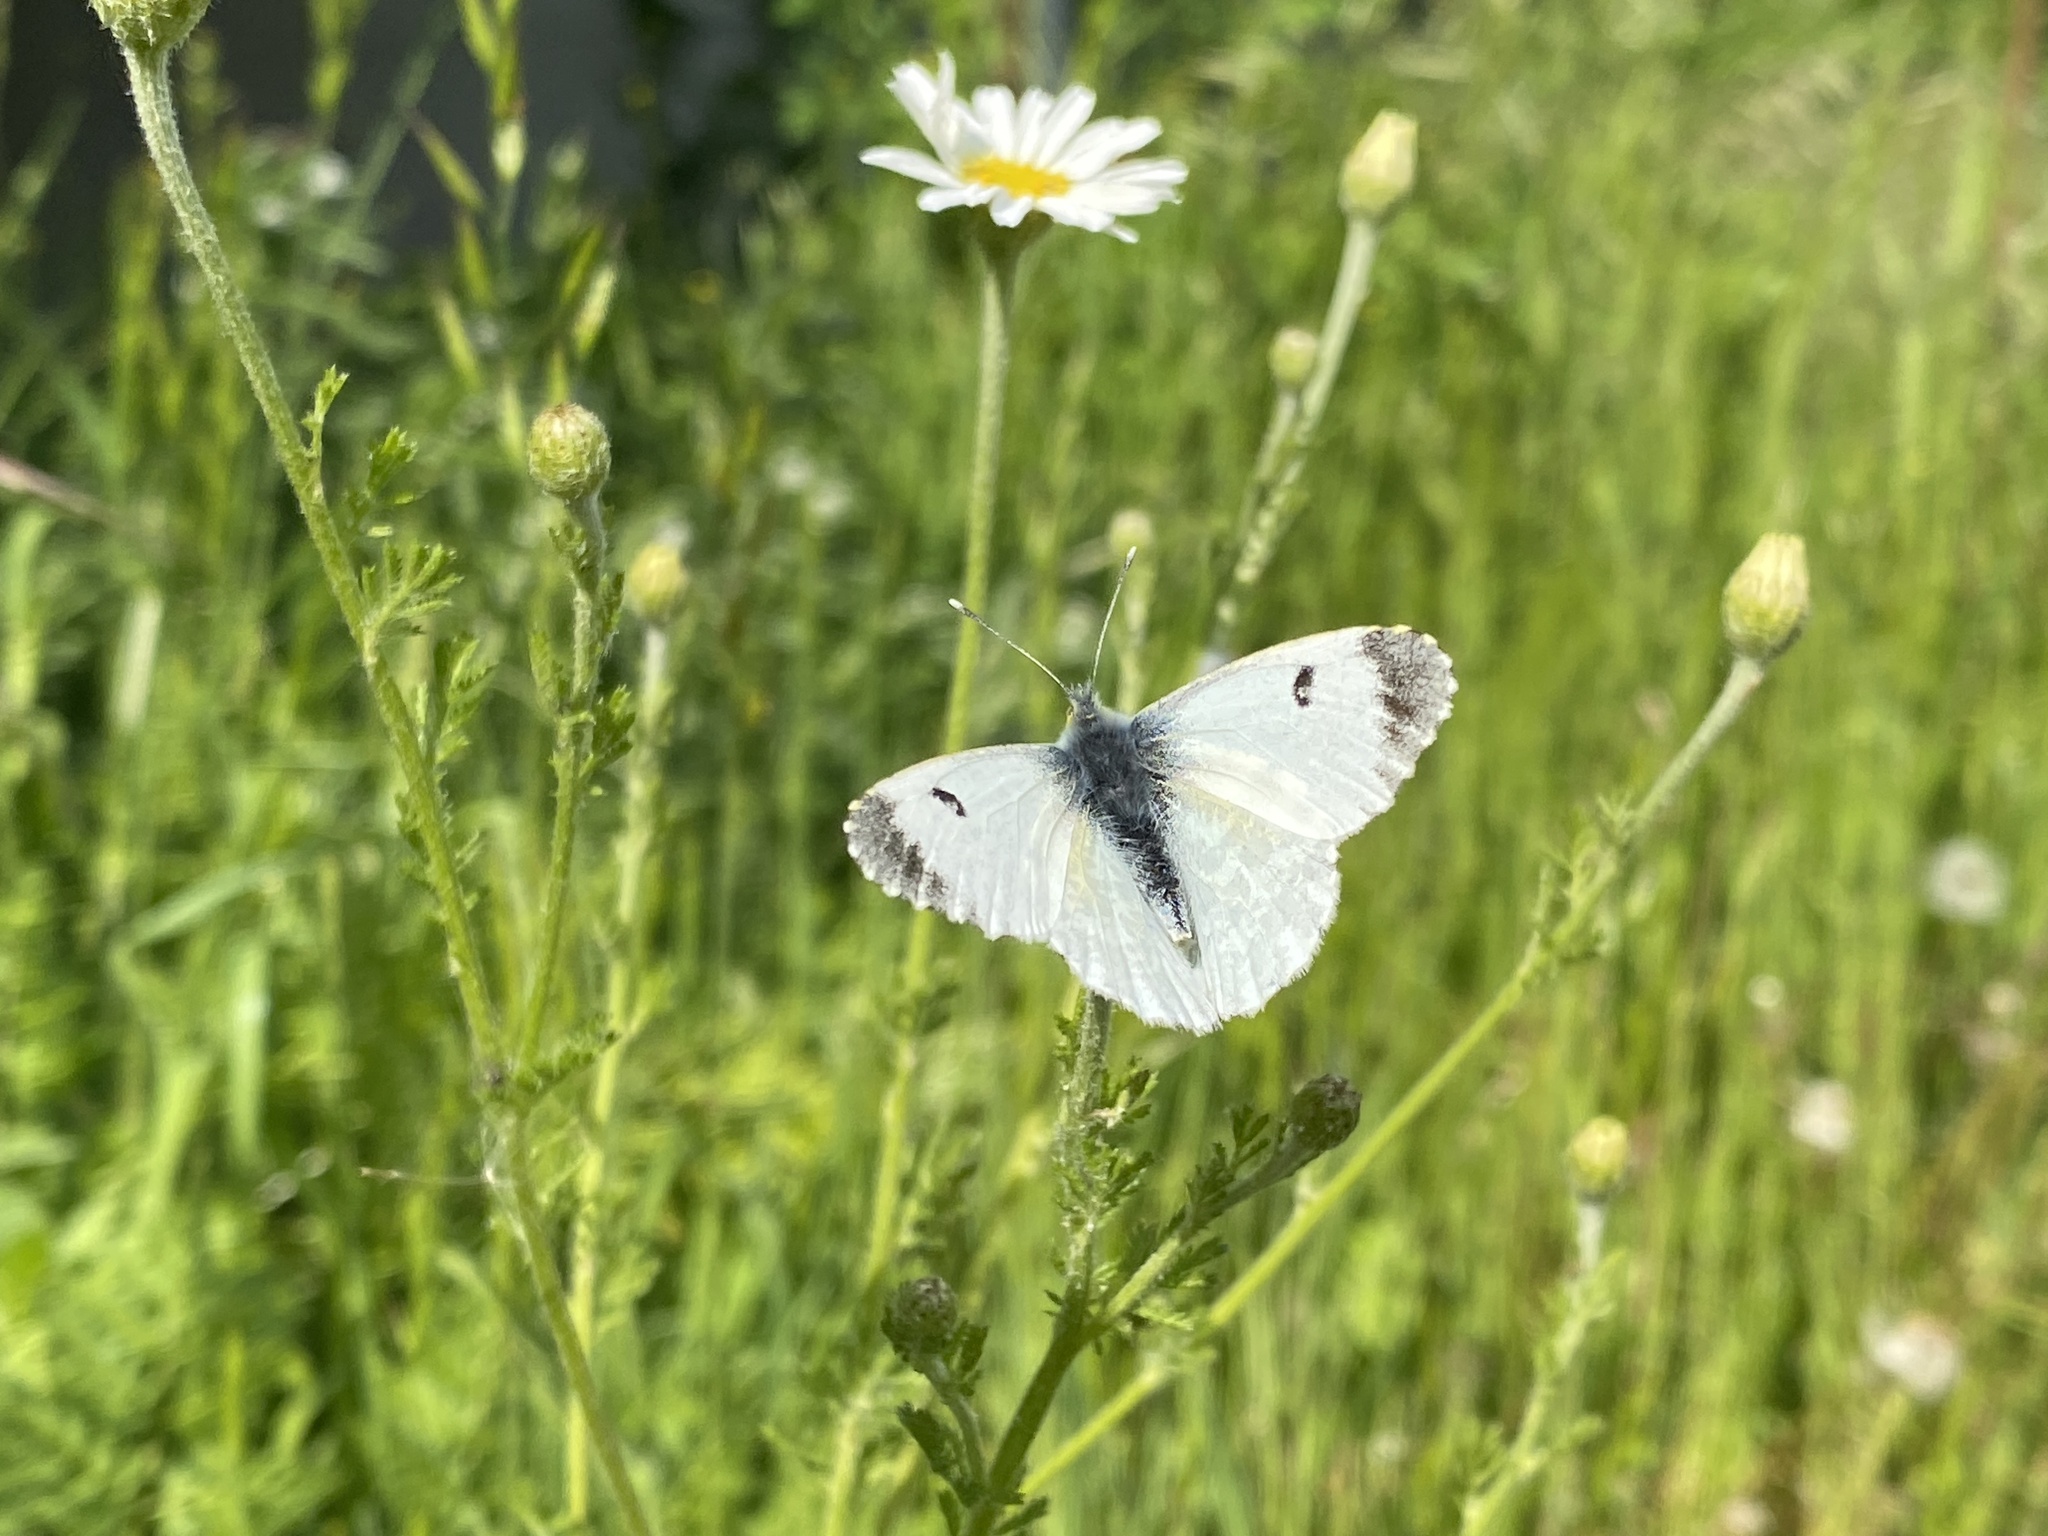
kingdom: Animalia
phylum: Arthropoda
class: Insecta
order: Lepidoptera
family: Pieridae
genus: Anthocharis
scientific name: Anthocharis cardamines
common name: Orange-tip
